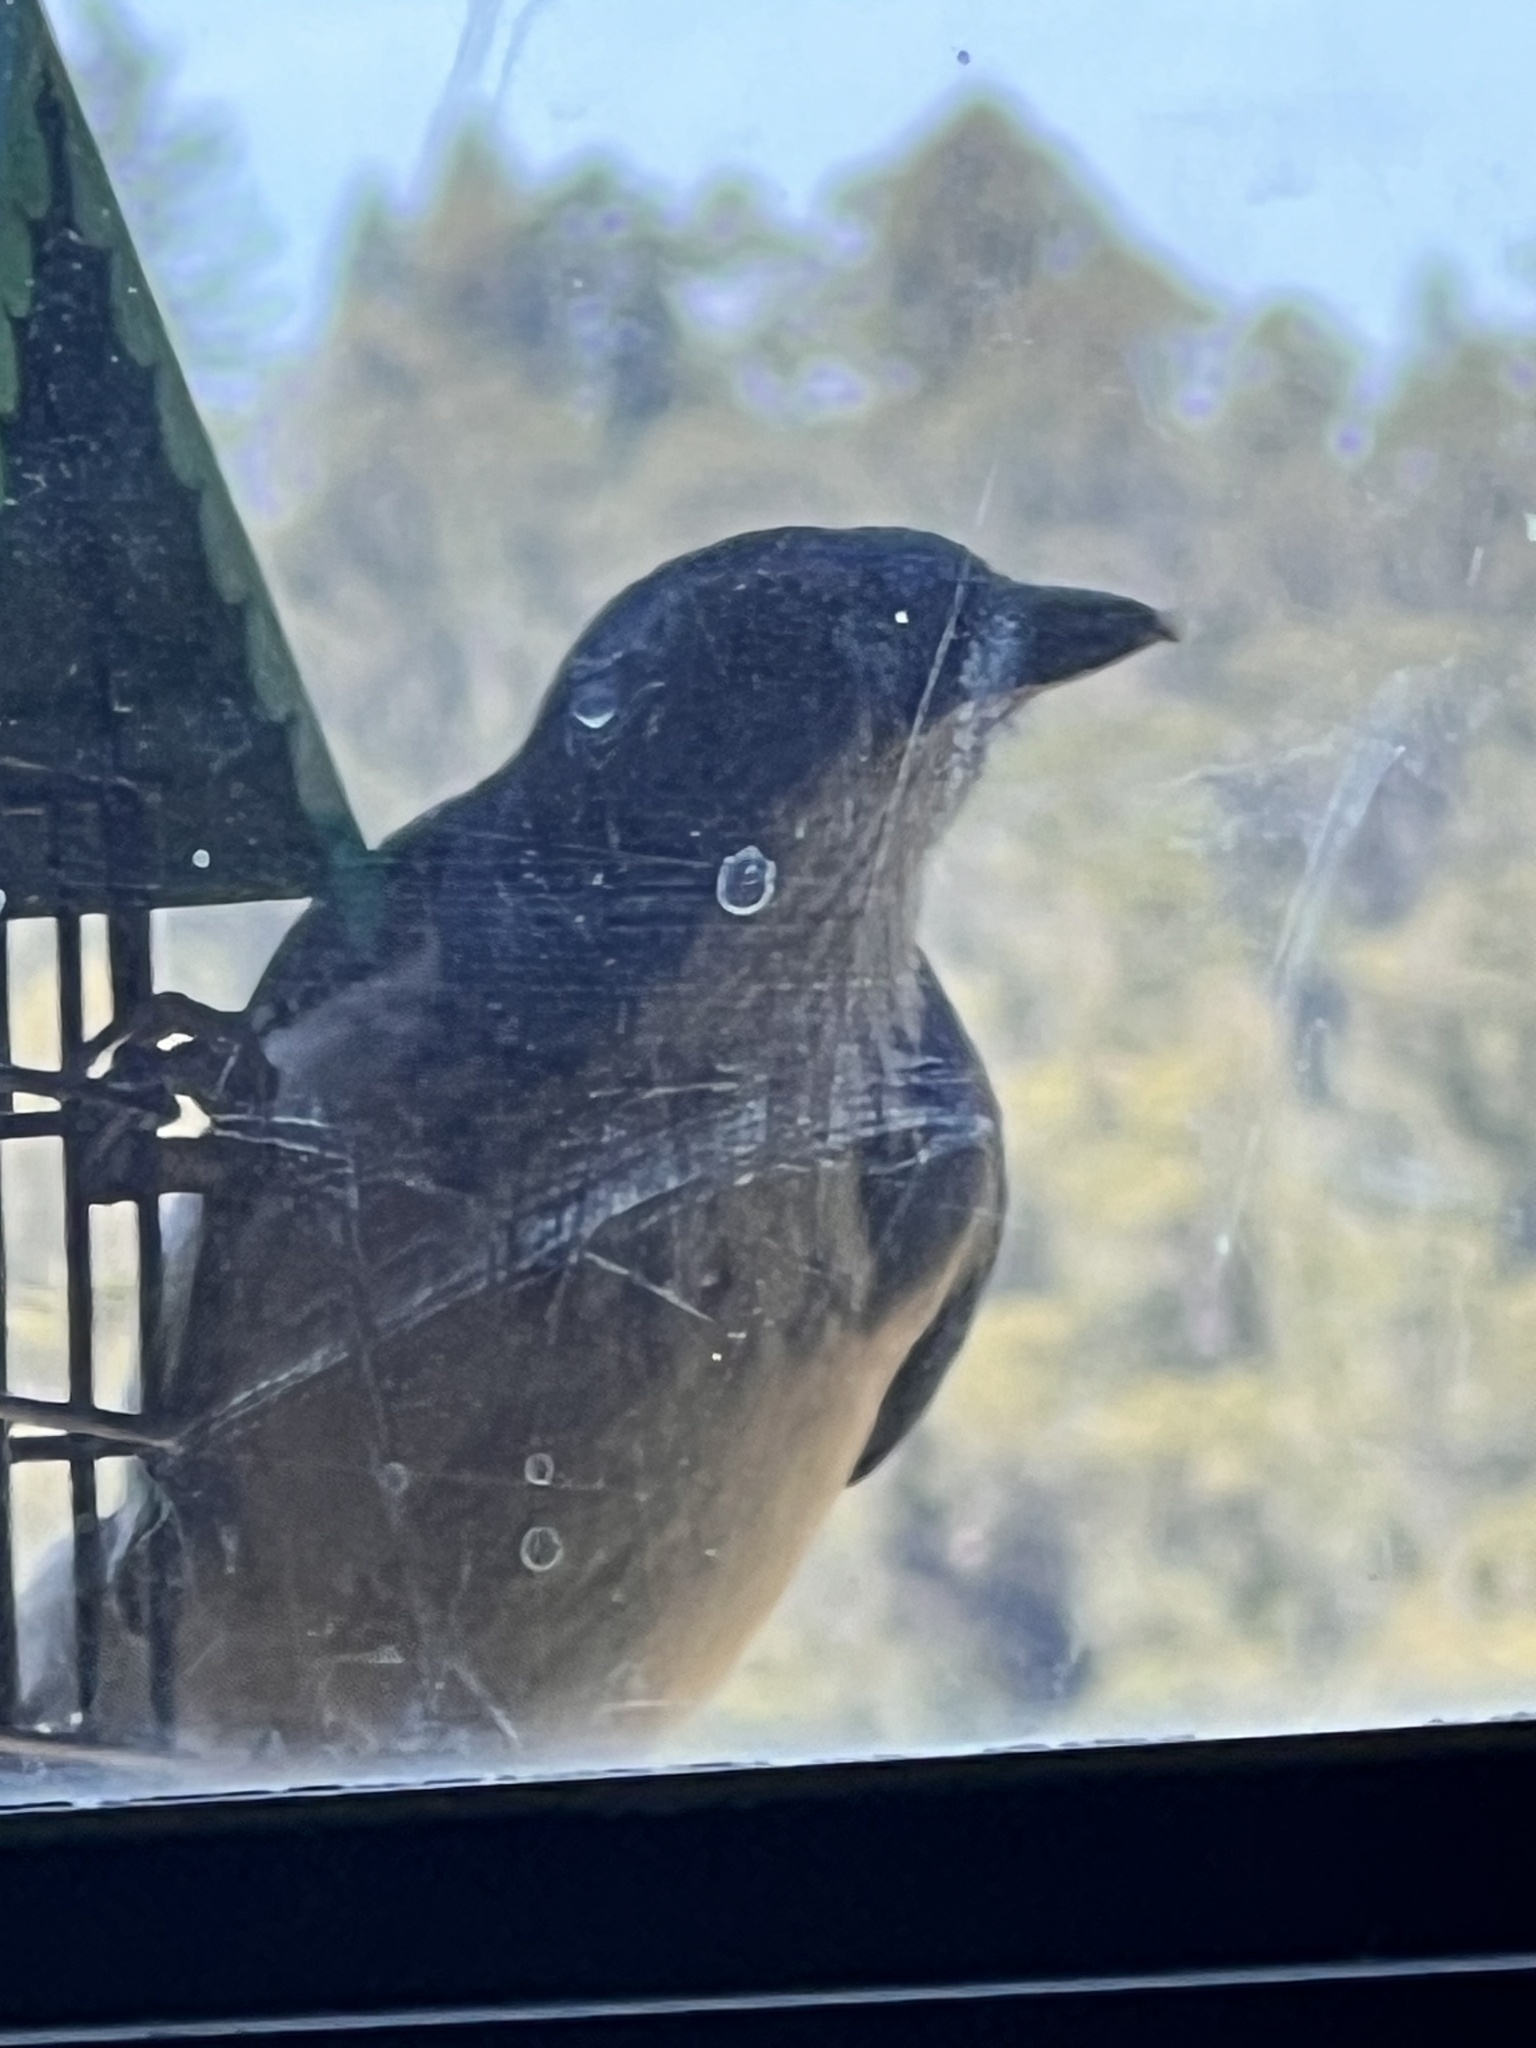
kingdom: Animalia
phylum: Chordata
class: Aves
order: Passeriformes
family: Corvidae
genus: Aphelocoma
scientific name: Aphelocoma californica
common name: California scrub-jay
